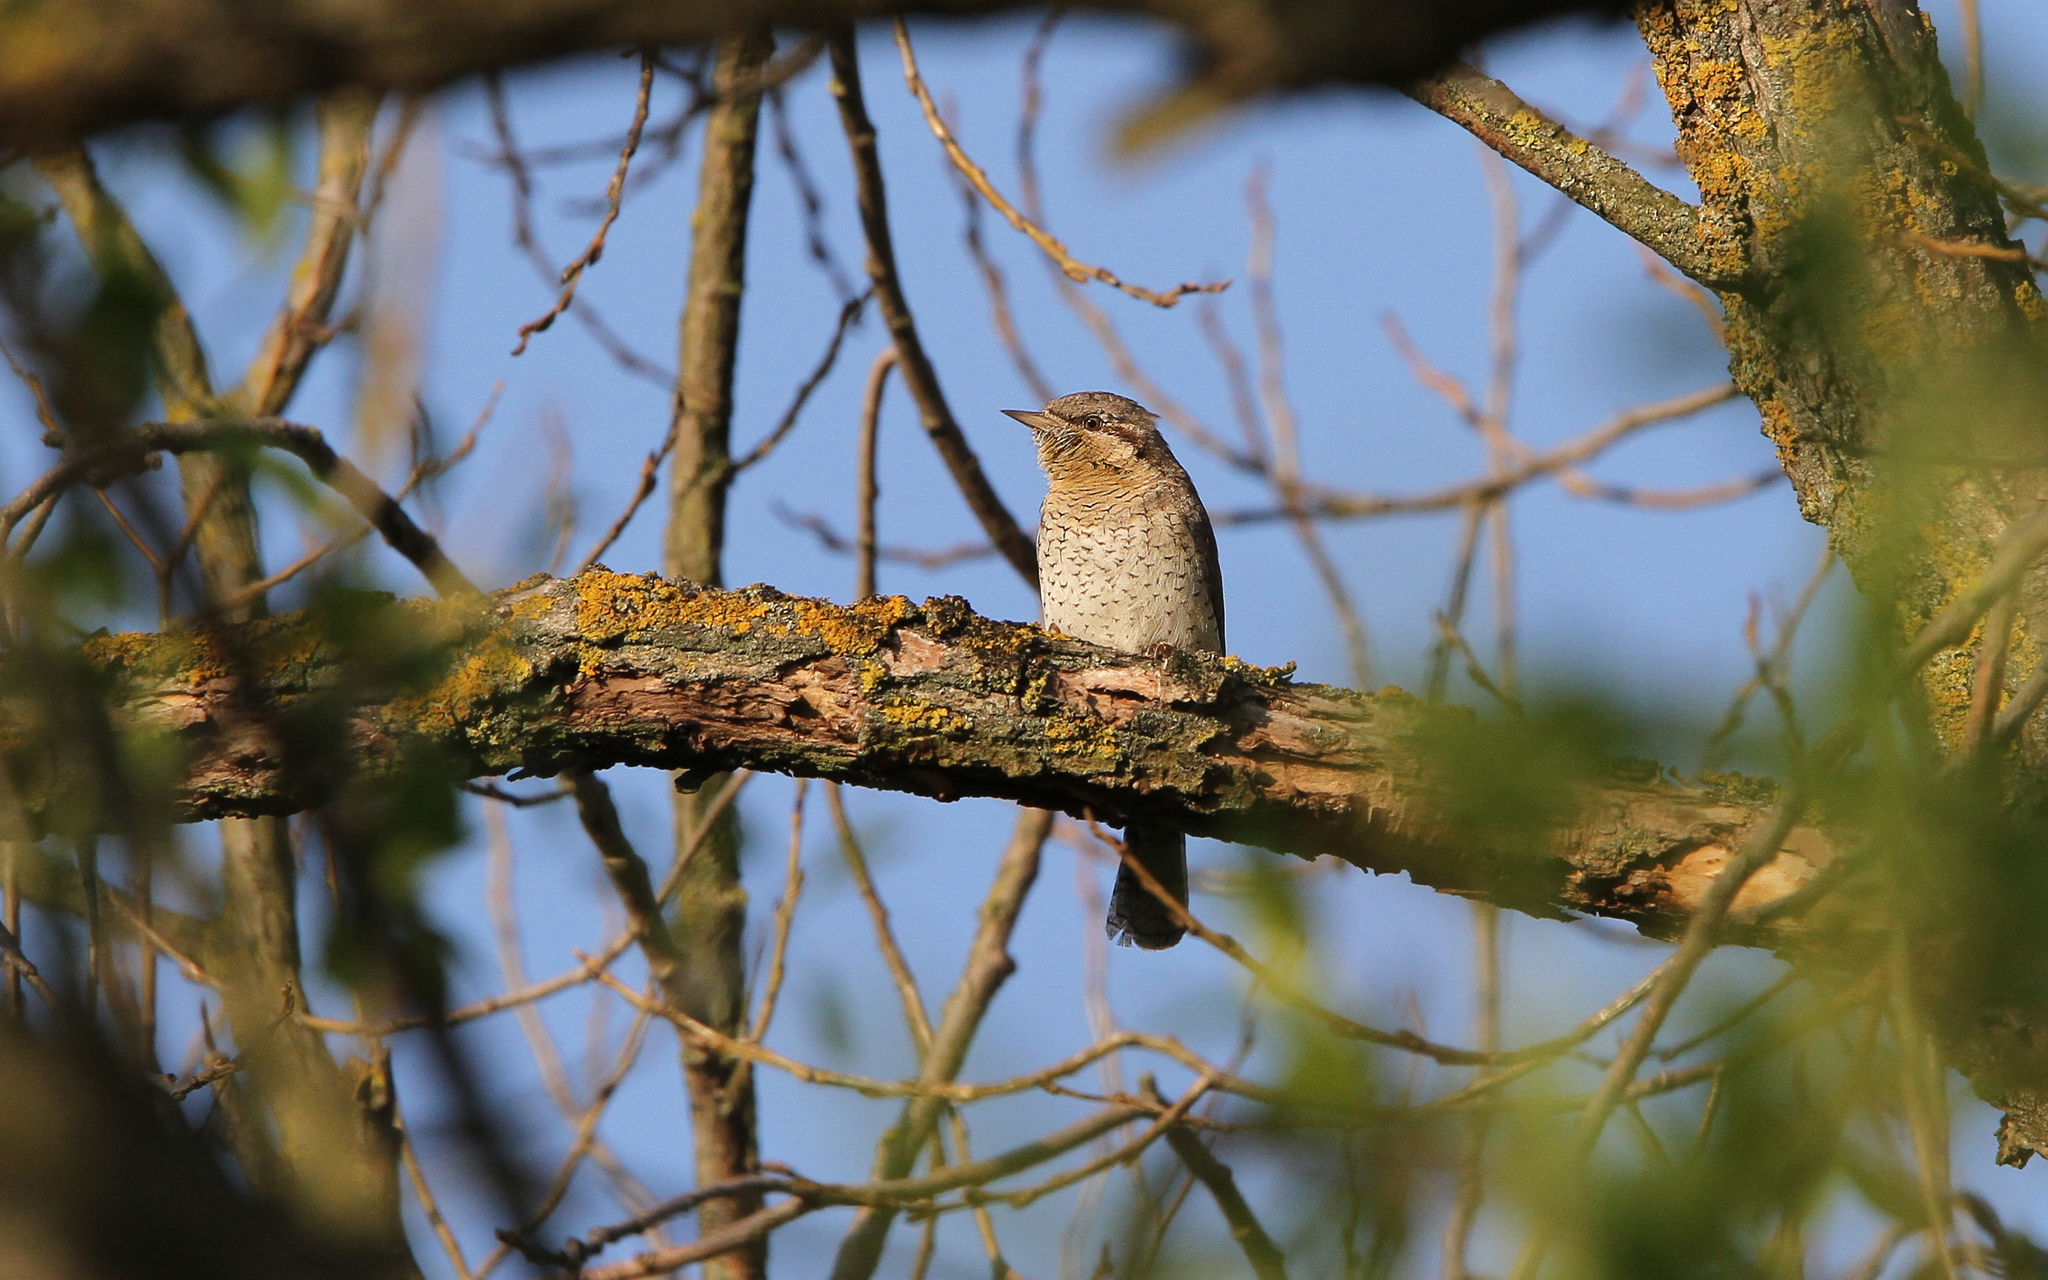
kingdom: Animalia
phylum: Chordata
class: Aves
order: Piciformes
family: Picidae
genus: Jynx
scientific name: Jynx torquilla
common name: Eurasian wryneck
